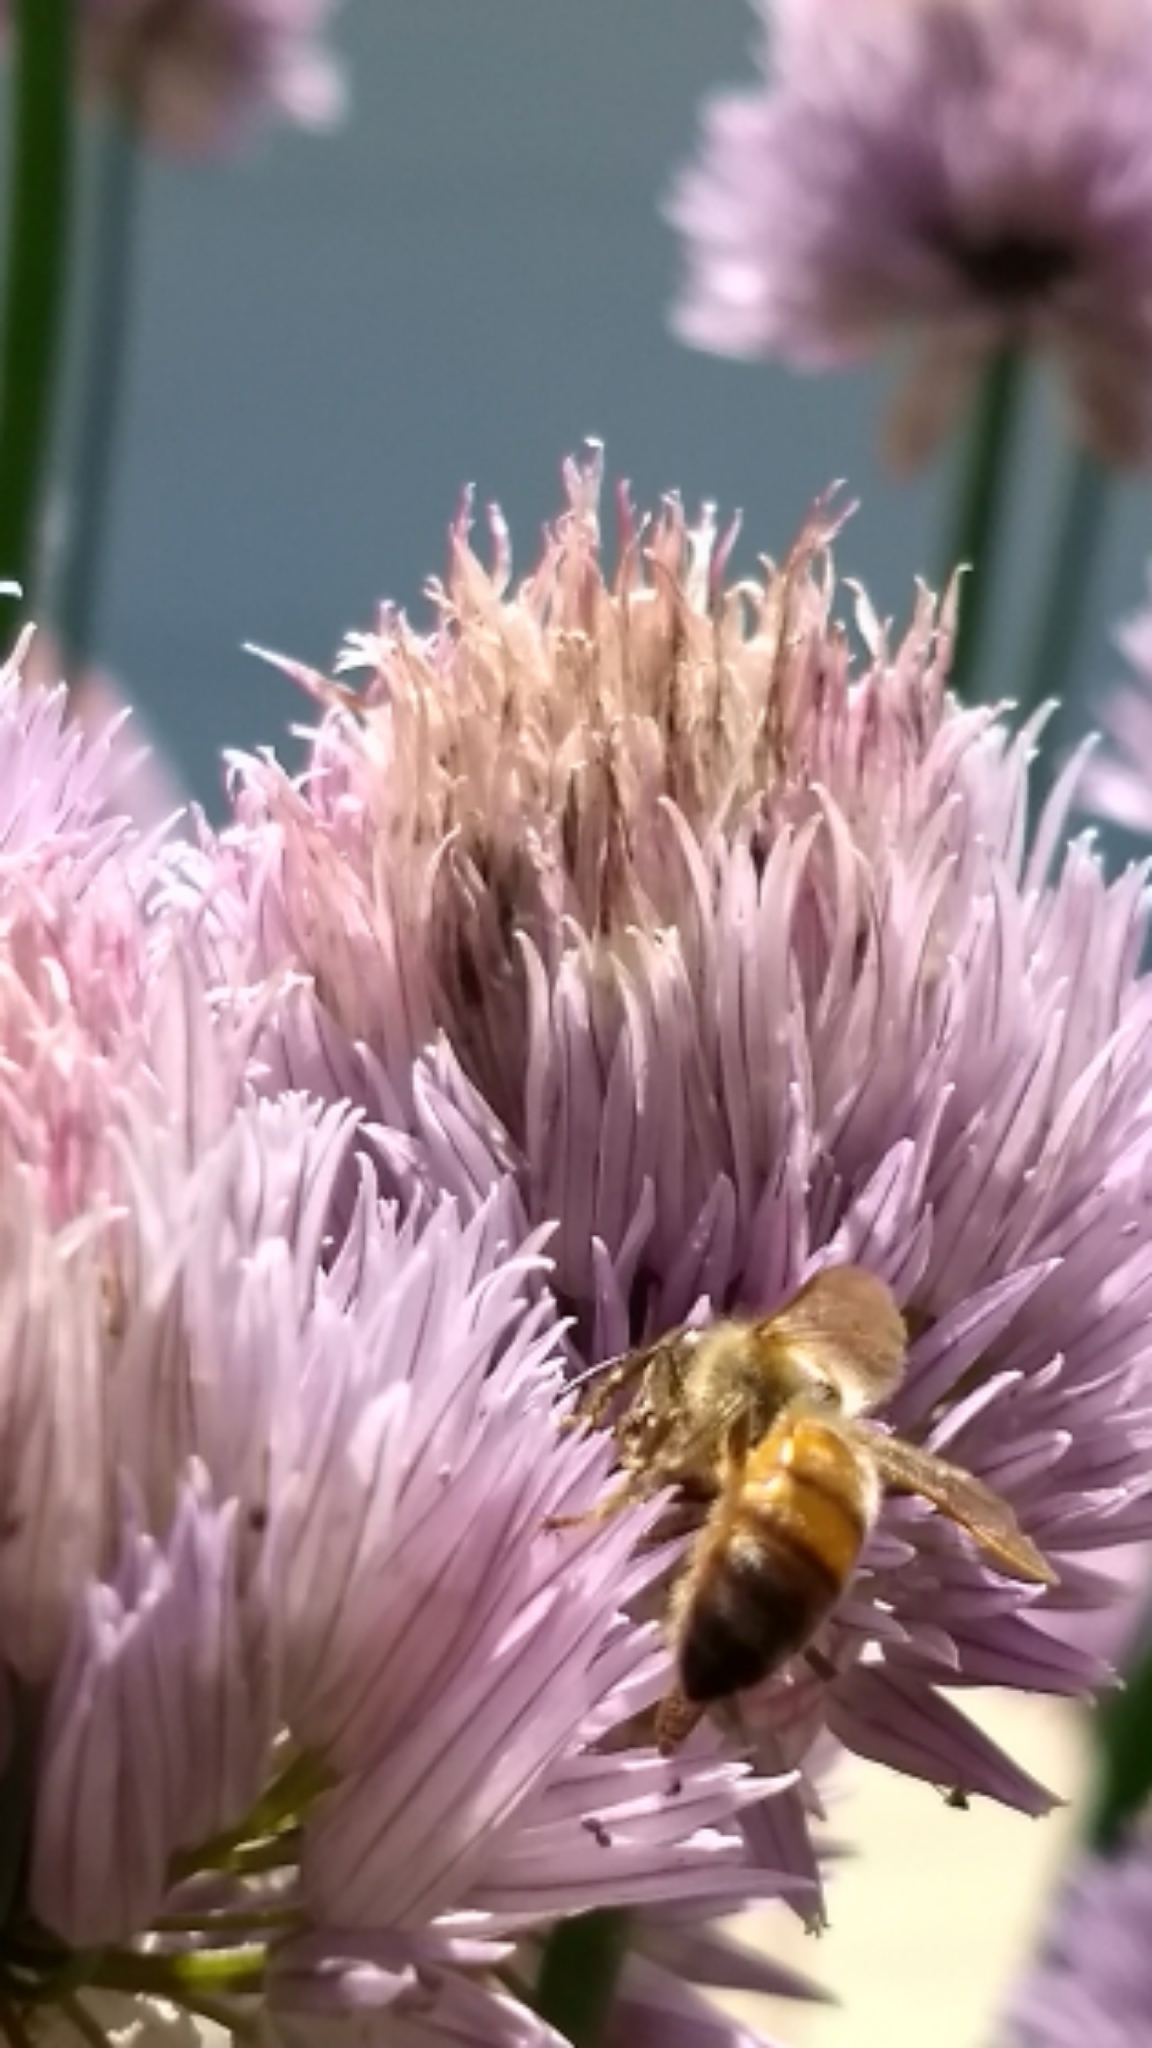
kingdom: Animalia
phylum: Arthropoda
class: Insecta
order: Hymenoptera
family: Apidae
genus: Apis
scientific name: Apis mellifera
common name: Honey bee
